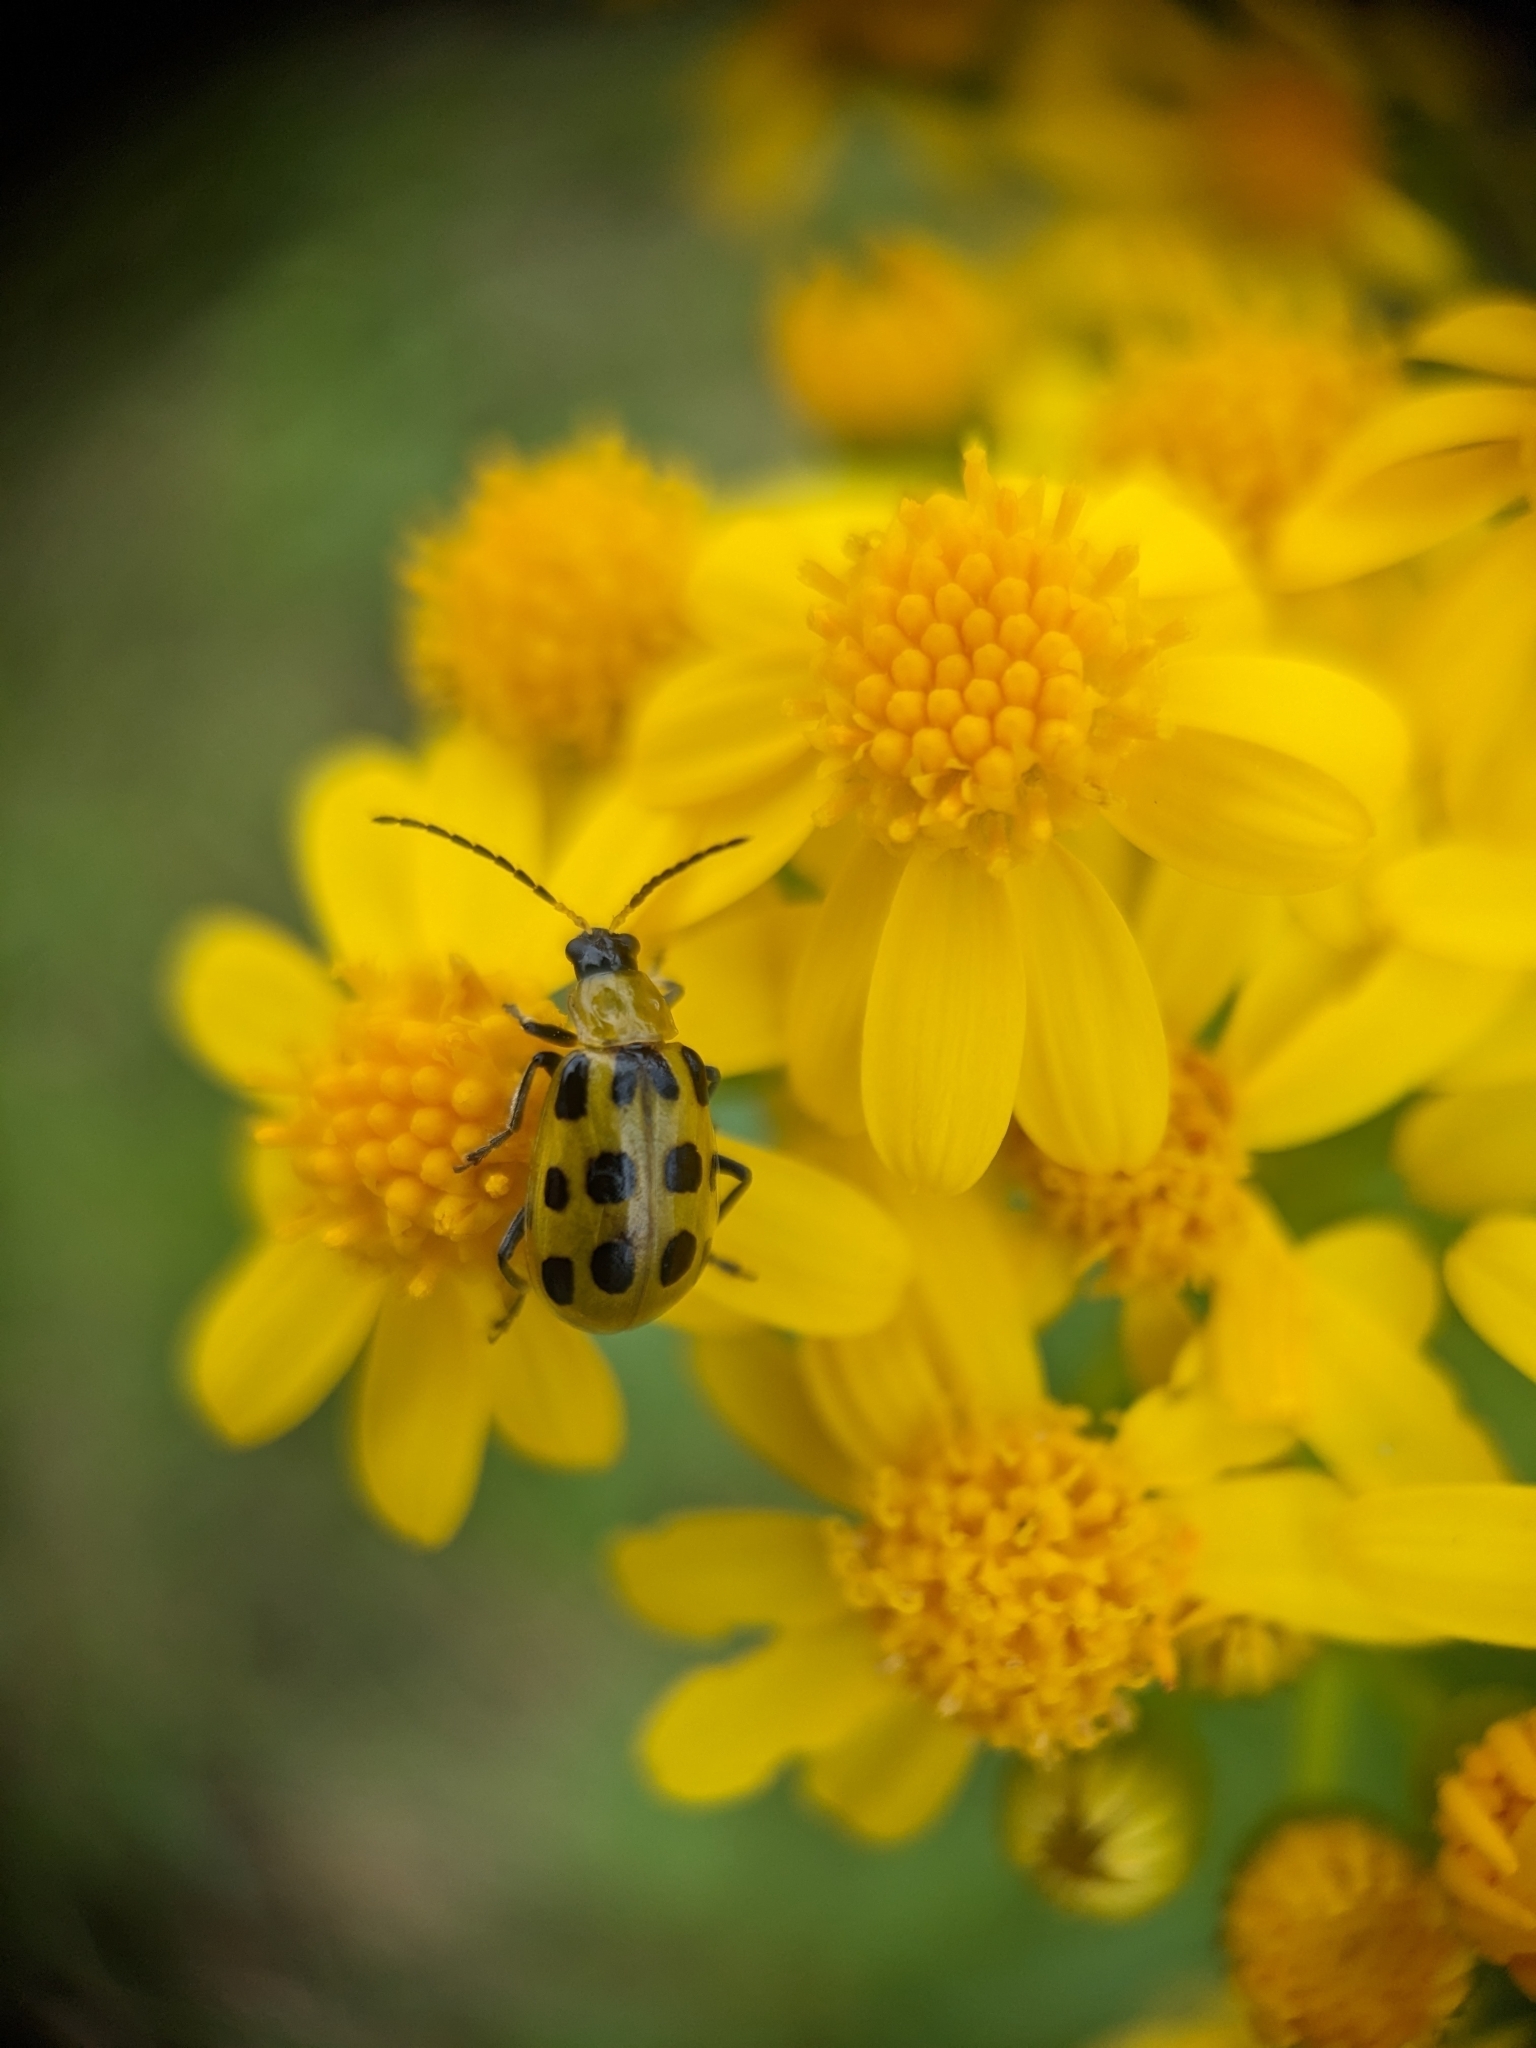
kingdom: Animalia
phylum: Arthropoda
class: Insecta
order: Coleoptera
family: Chrysomelidae
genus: Diabrotica
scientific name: Diabrotica undecimpunctata
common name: Spotted cucumber beetle
